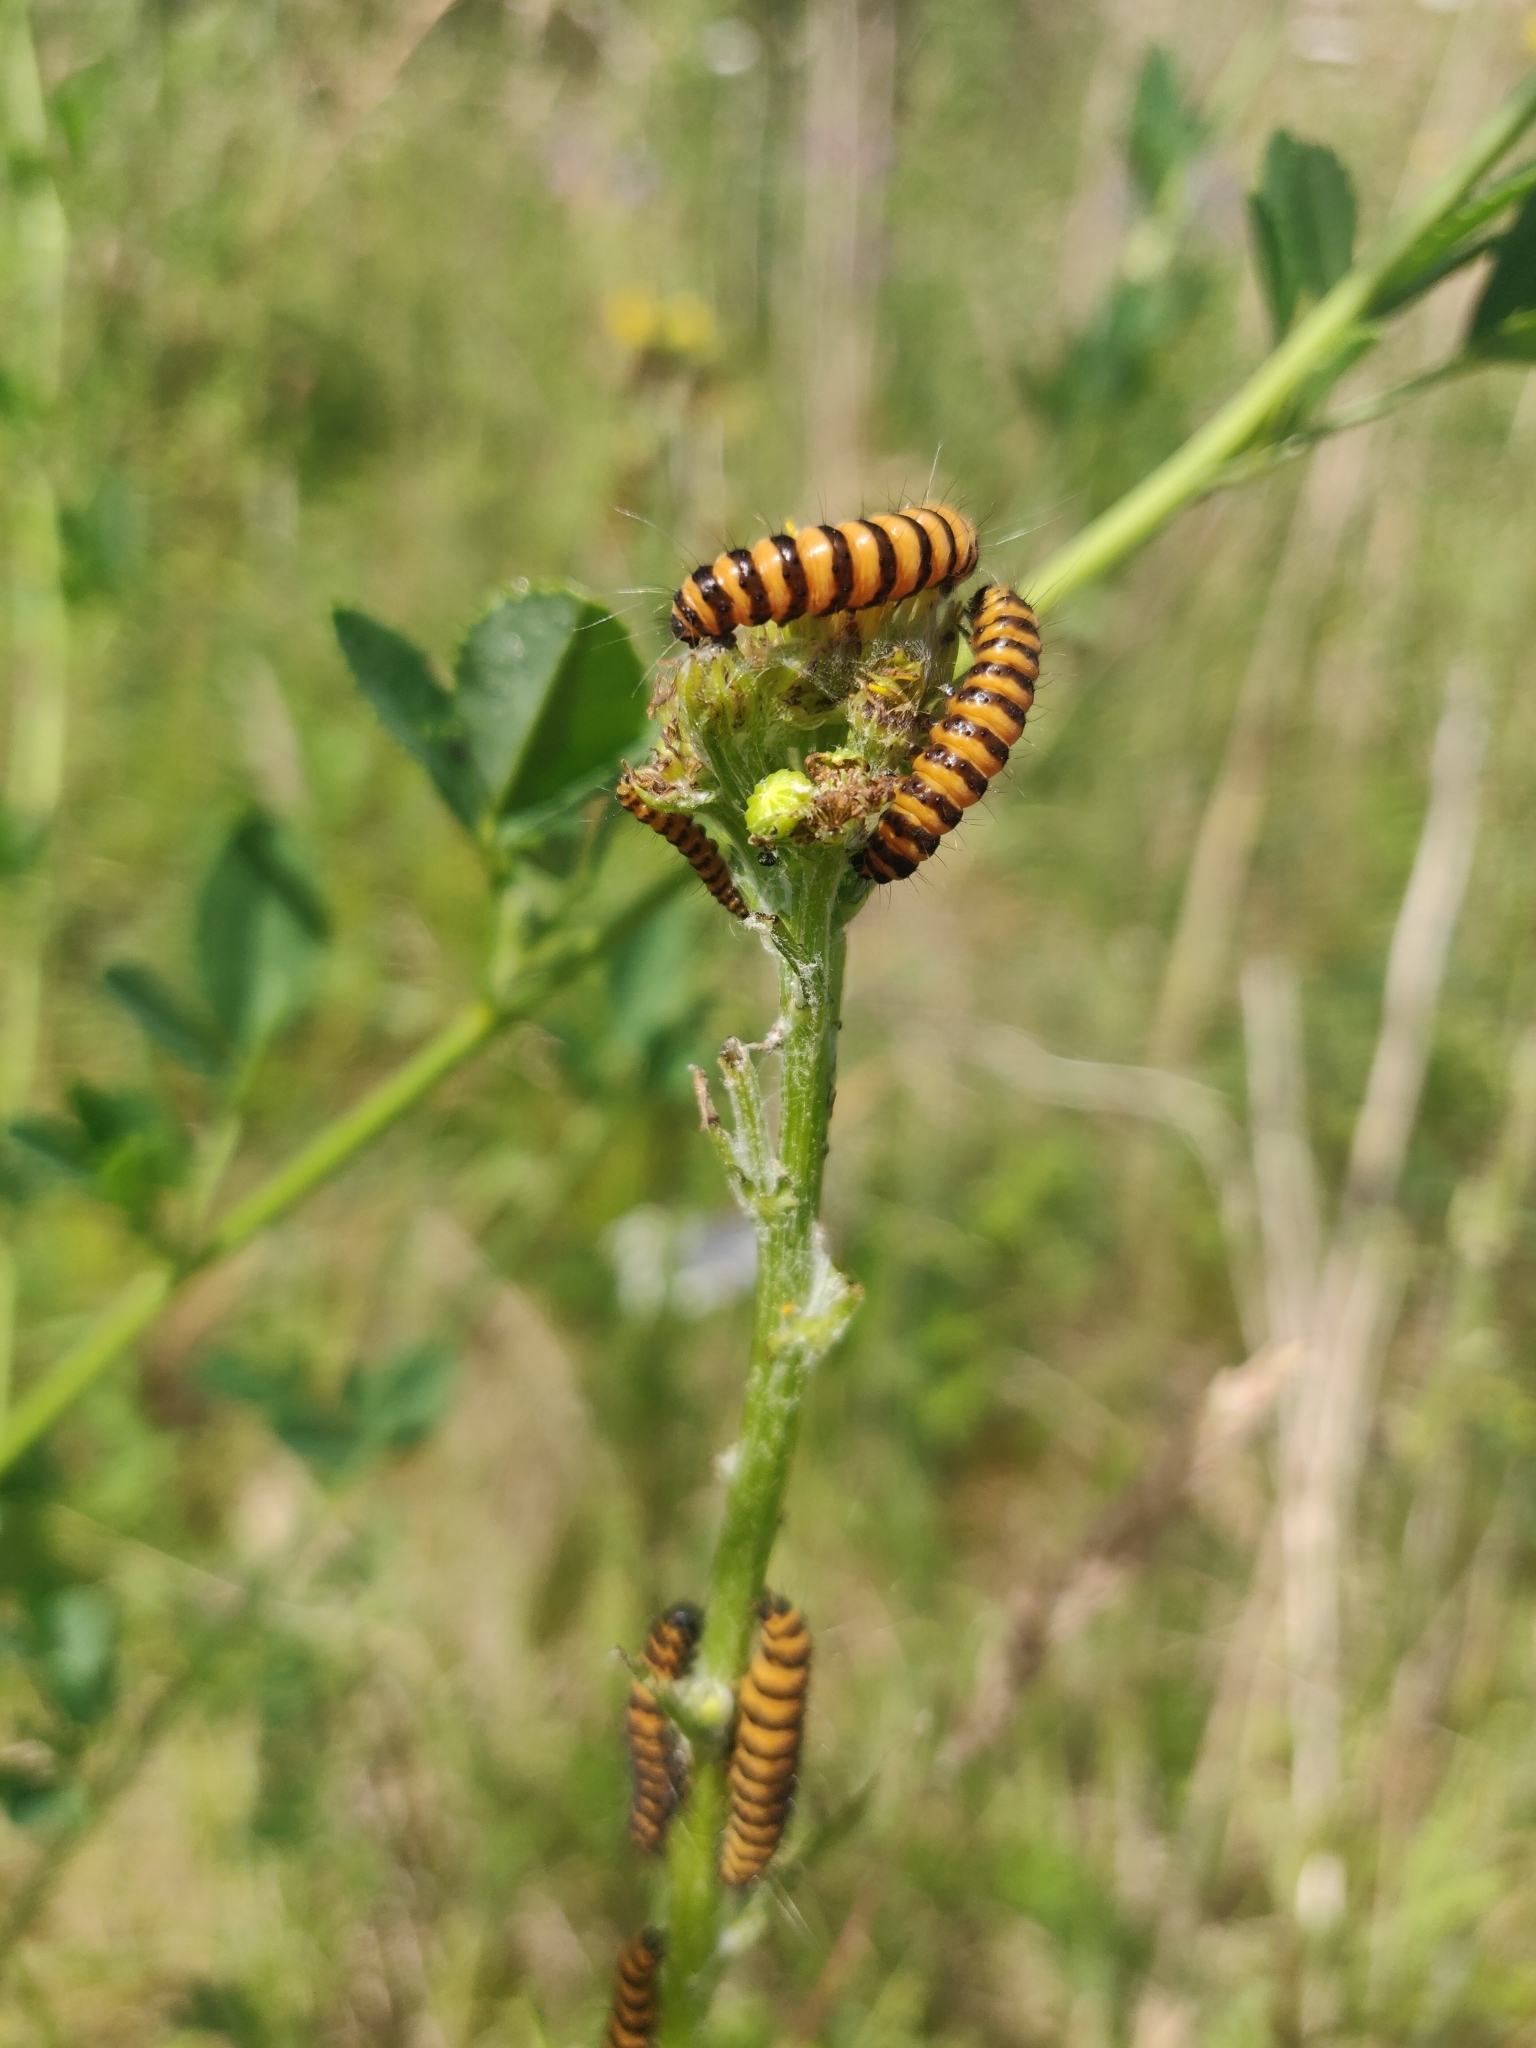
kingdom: Animalia
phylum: Arthropoda
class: Insecta
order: Lepidoptera
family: Erebidae
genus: Tyria
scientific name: Tyria jacobaeae
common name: Cinnabar
